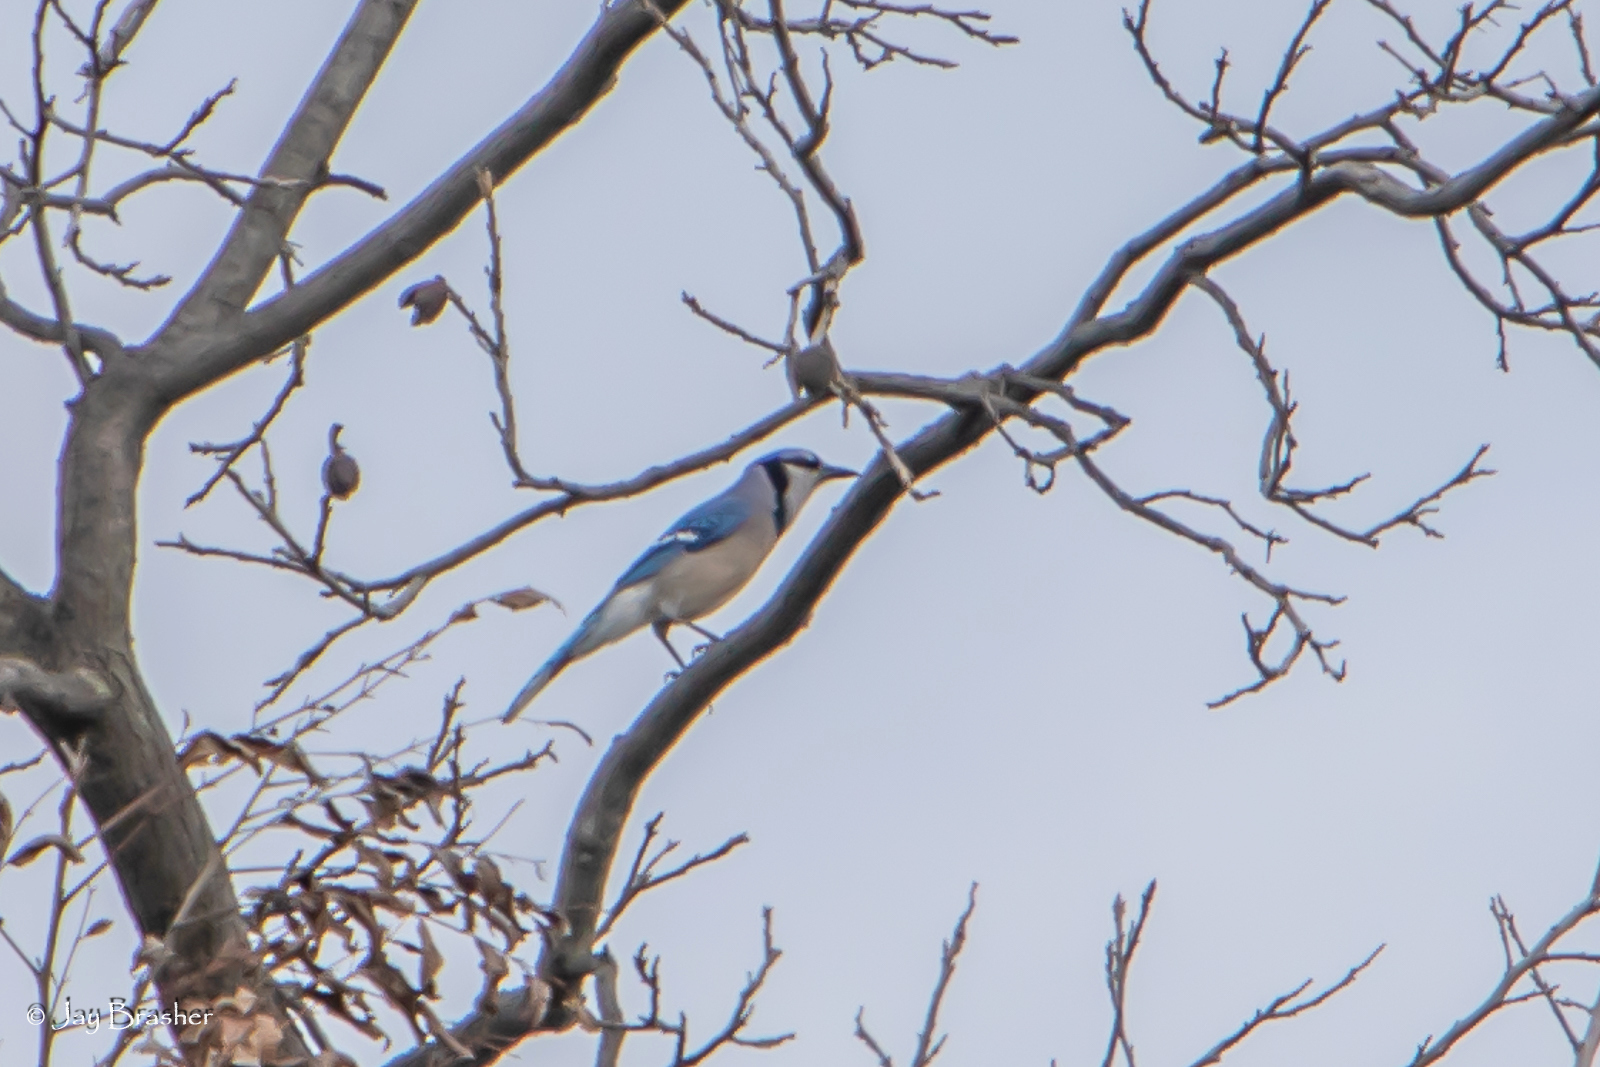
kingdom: Animalia
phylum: Chordata
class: Aves
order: Passeriformes
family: Corvidae
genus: Cyanocitta
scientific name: Cyanocitta cristata
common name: Blue jay
